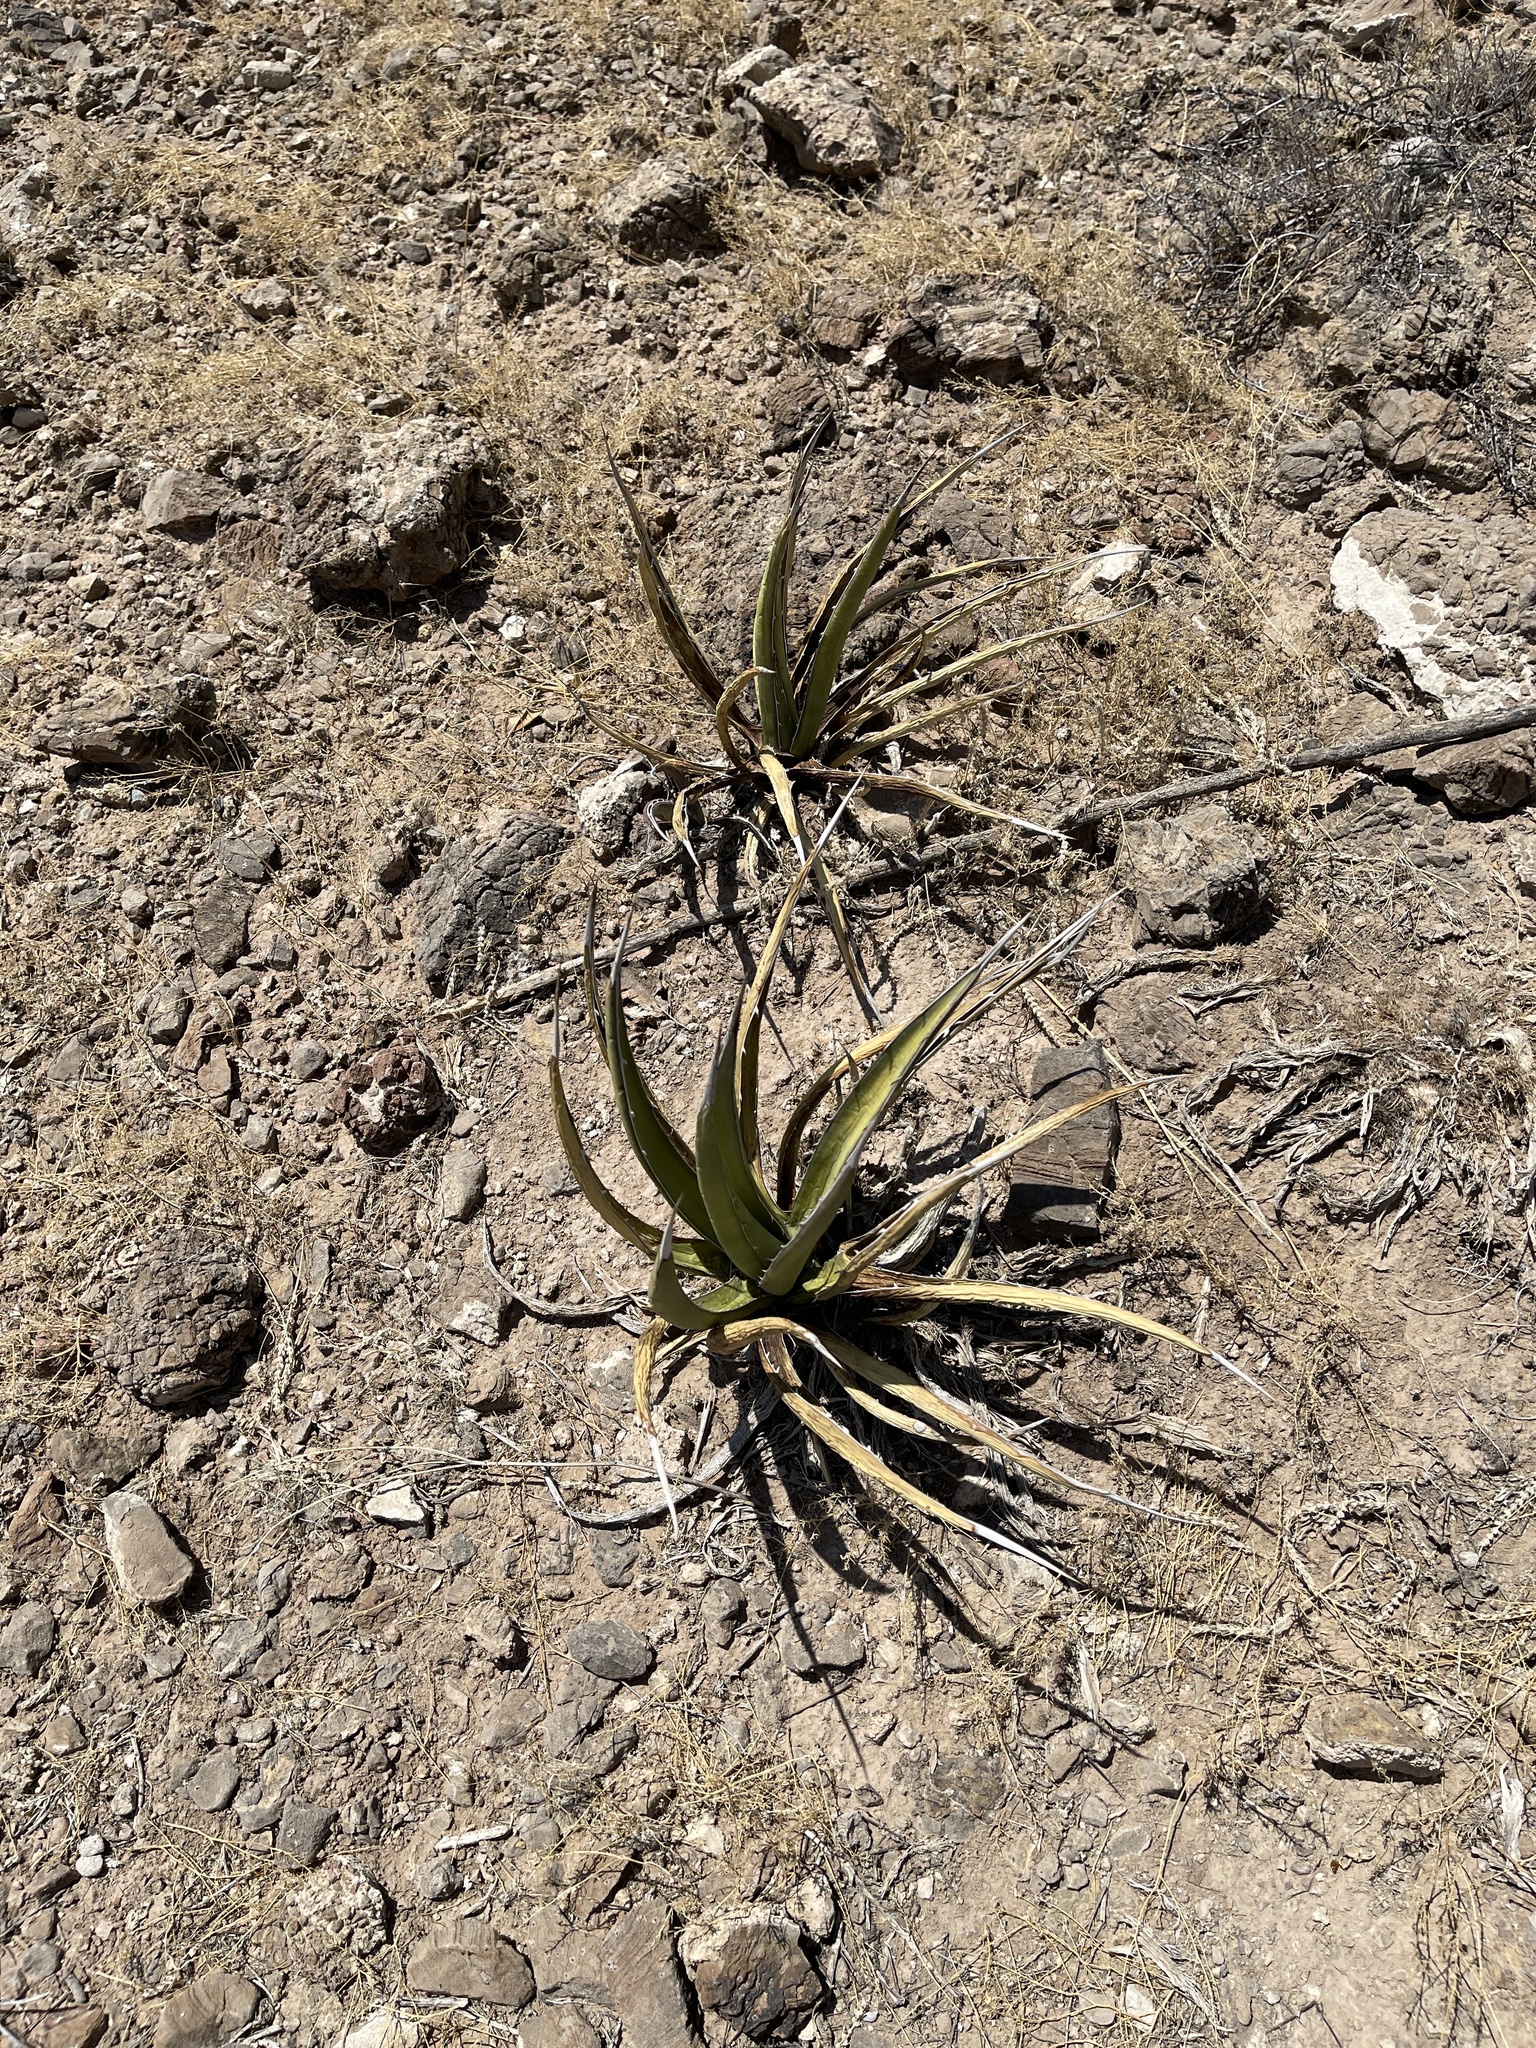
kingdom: Plantae
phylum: Tracheophyta
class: Liliopsida
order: Asparagales
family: Asparagaceae
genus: Agave
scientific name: Agave lechuguilla
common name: Lecheguilla agave
